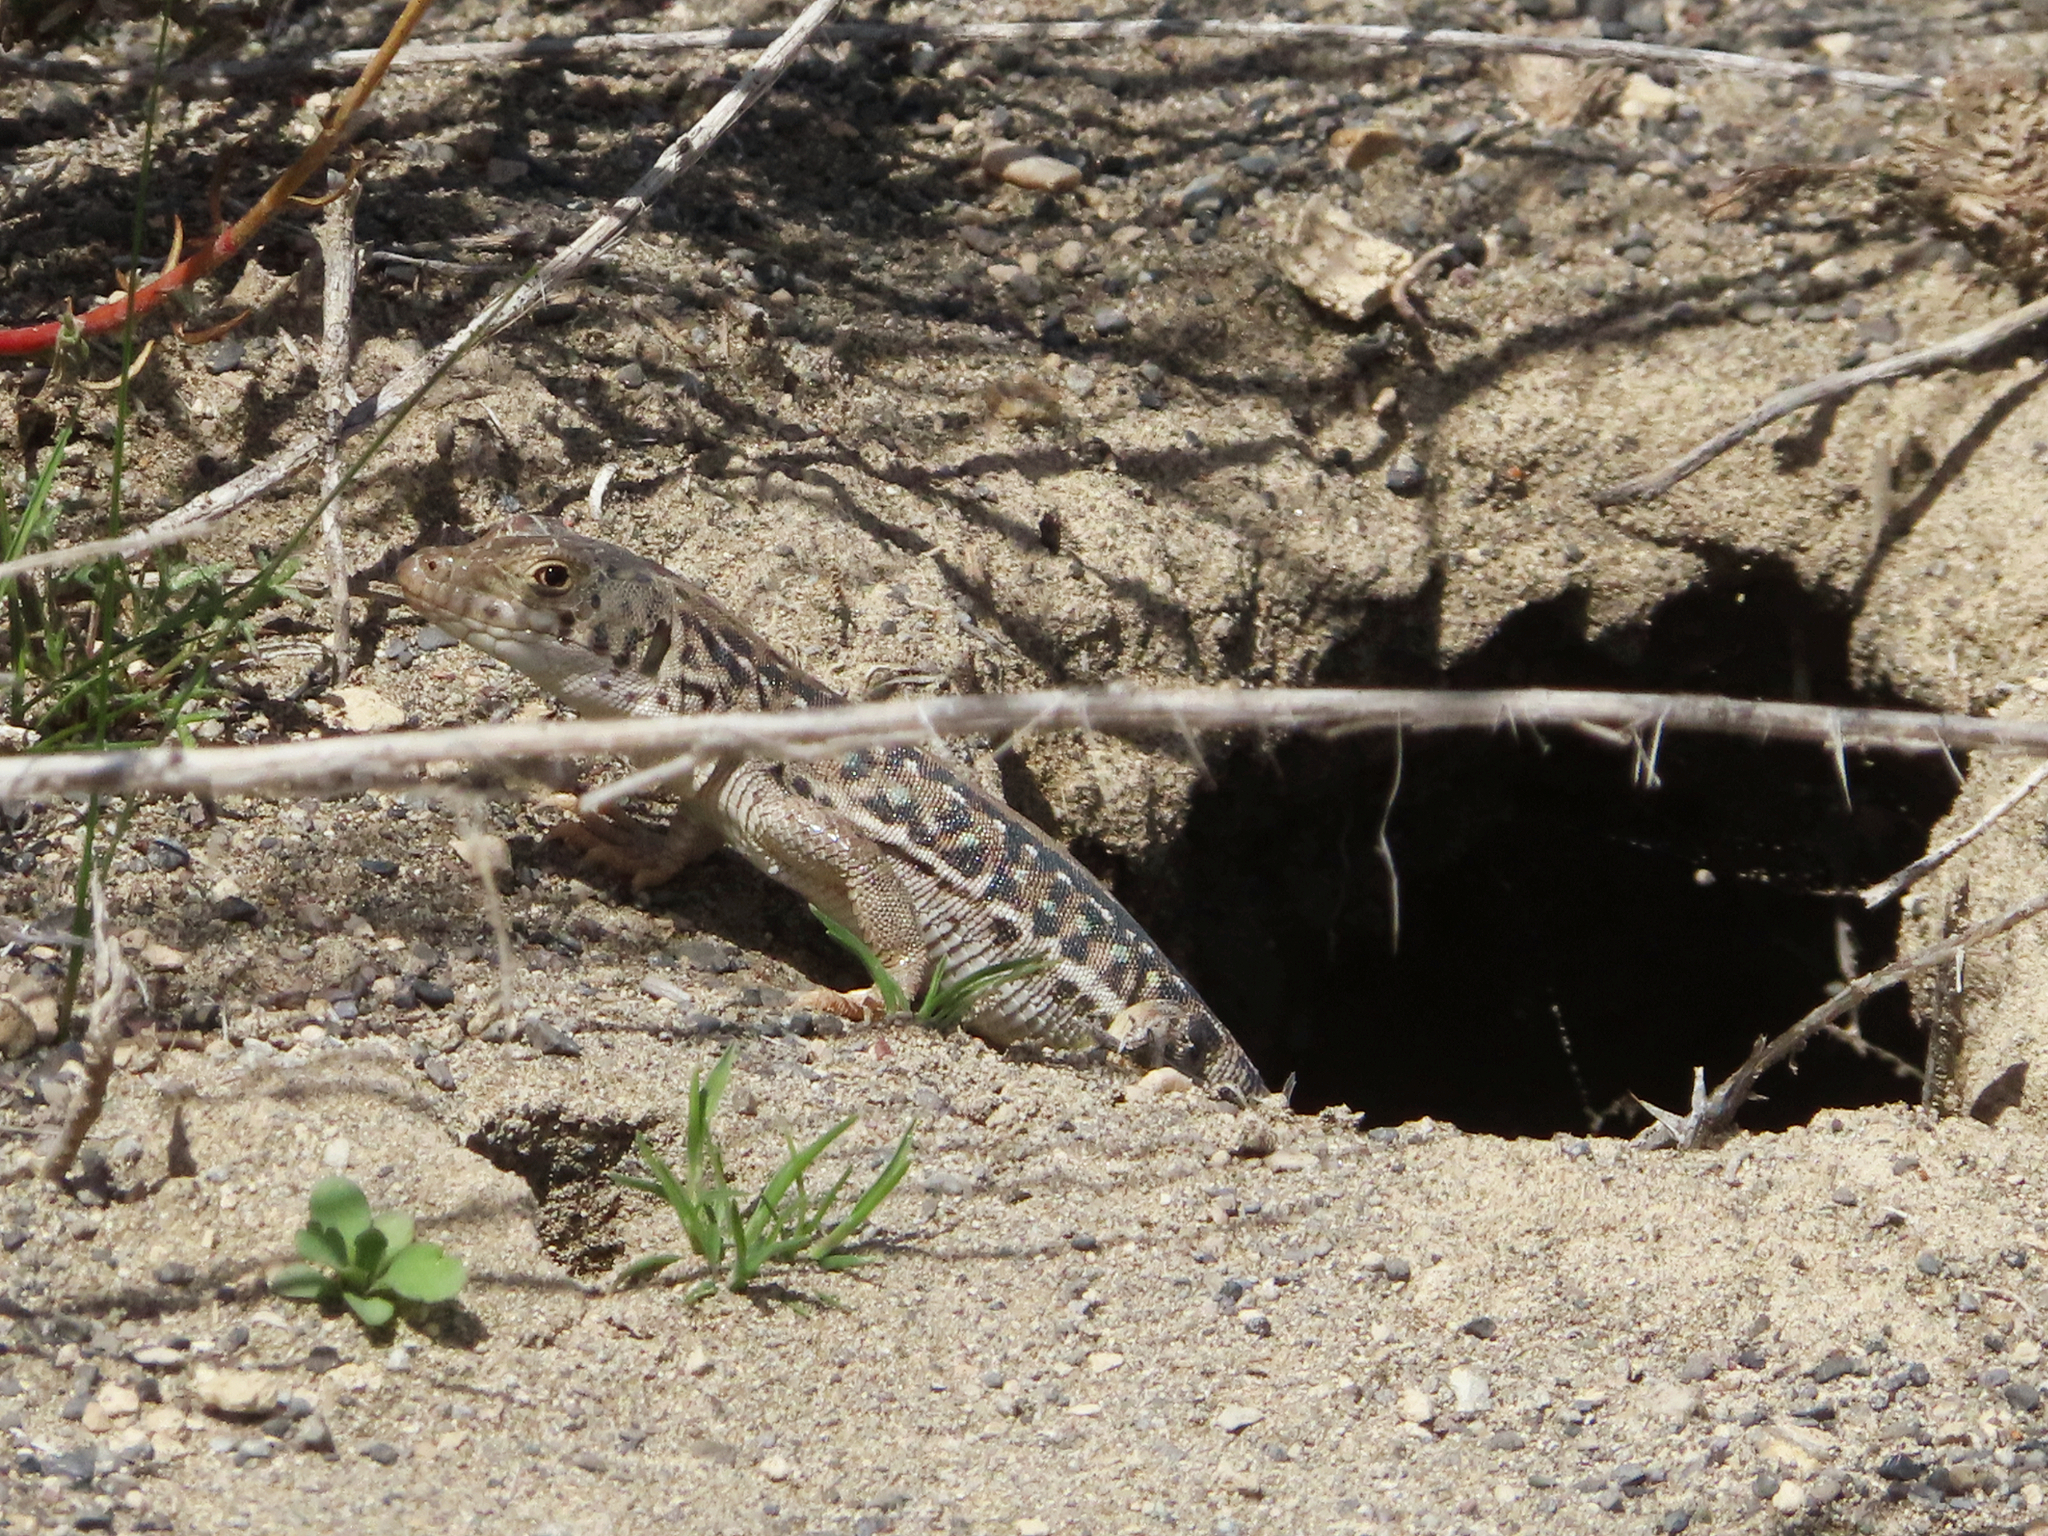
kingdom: Animalia
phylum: Chordata
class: Squamata
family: Lacertidae
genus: Eremias
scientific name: Eremias strauchi
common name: Strauch's racerunner
